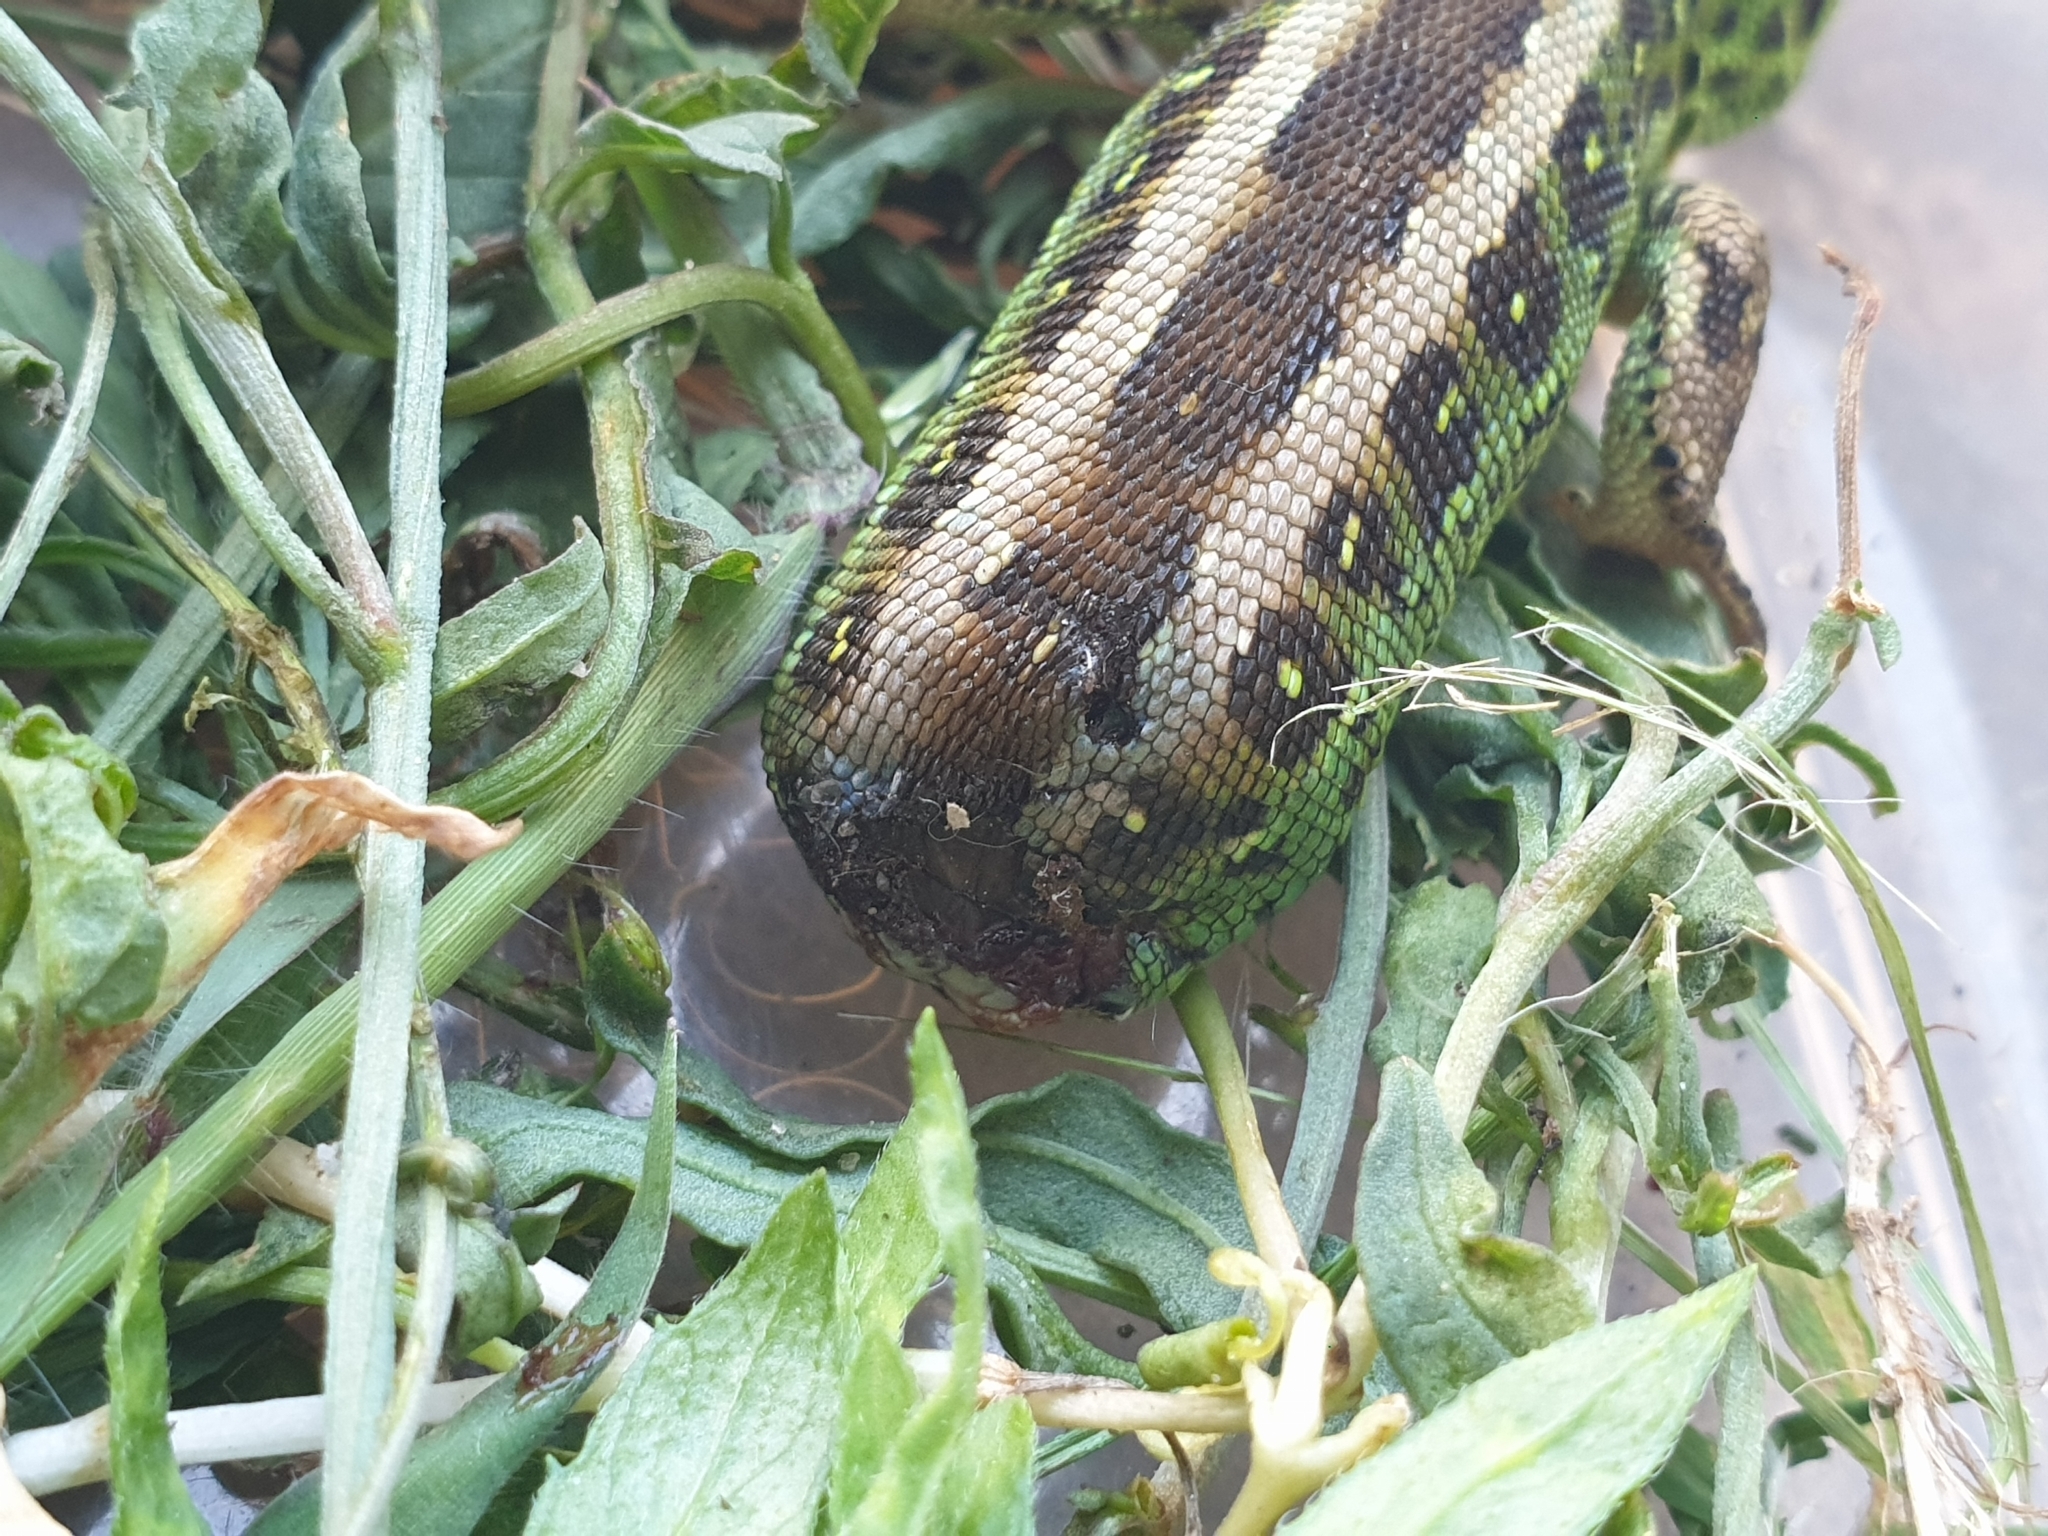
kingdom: Animalia
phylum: Chordata
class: Squamata
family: Lacertidae
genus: Lacerta
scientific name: Lacerta agilis
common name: Sand lizard
